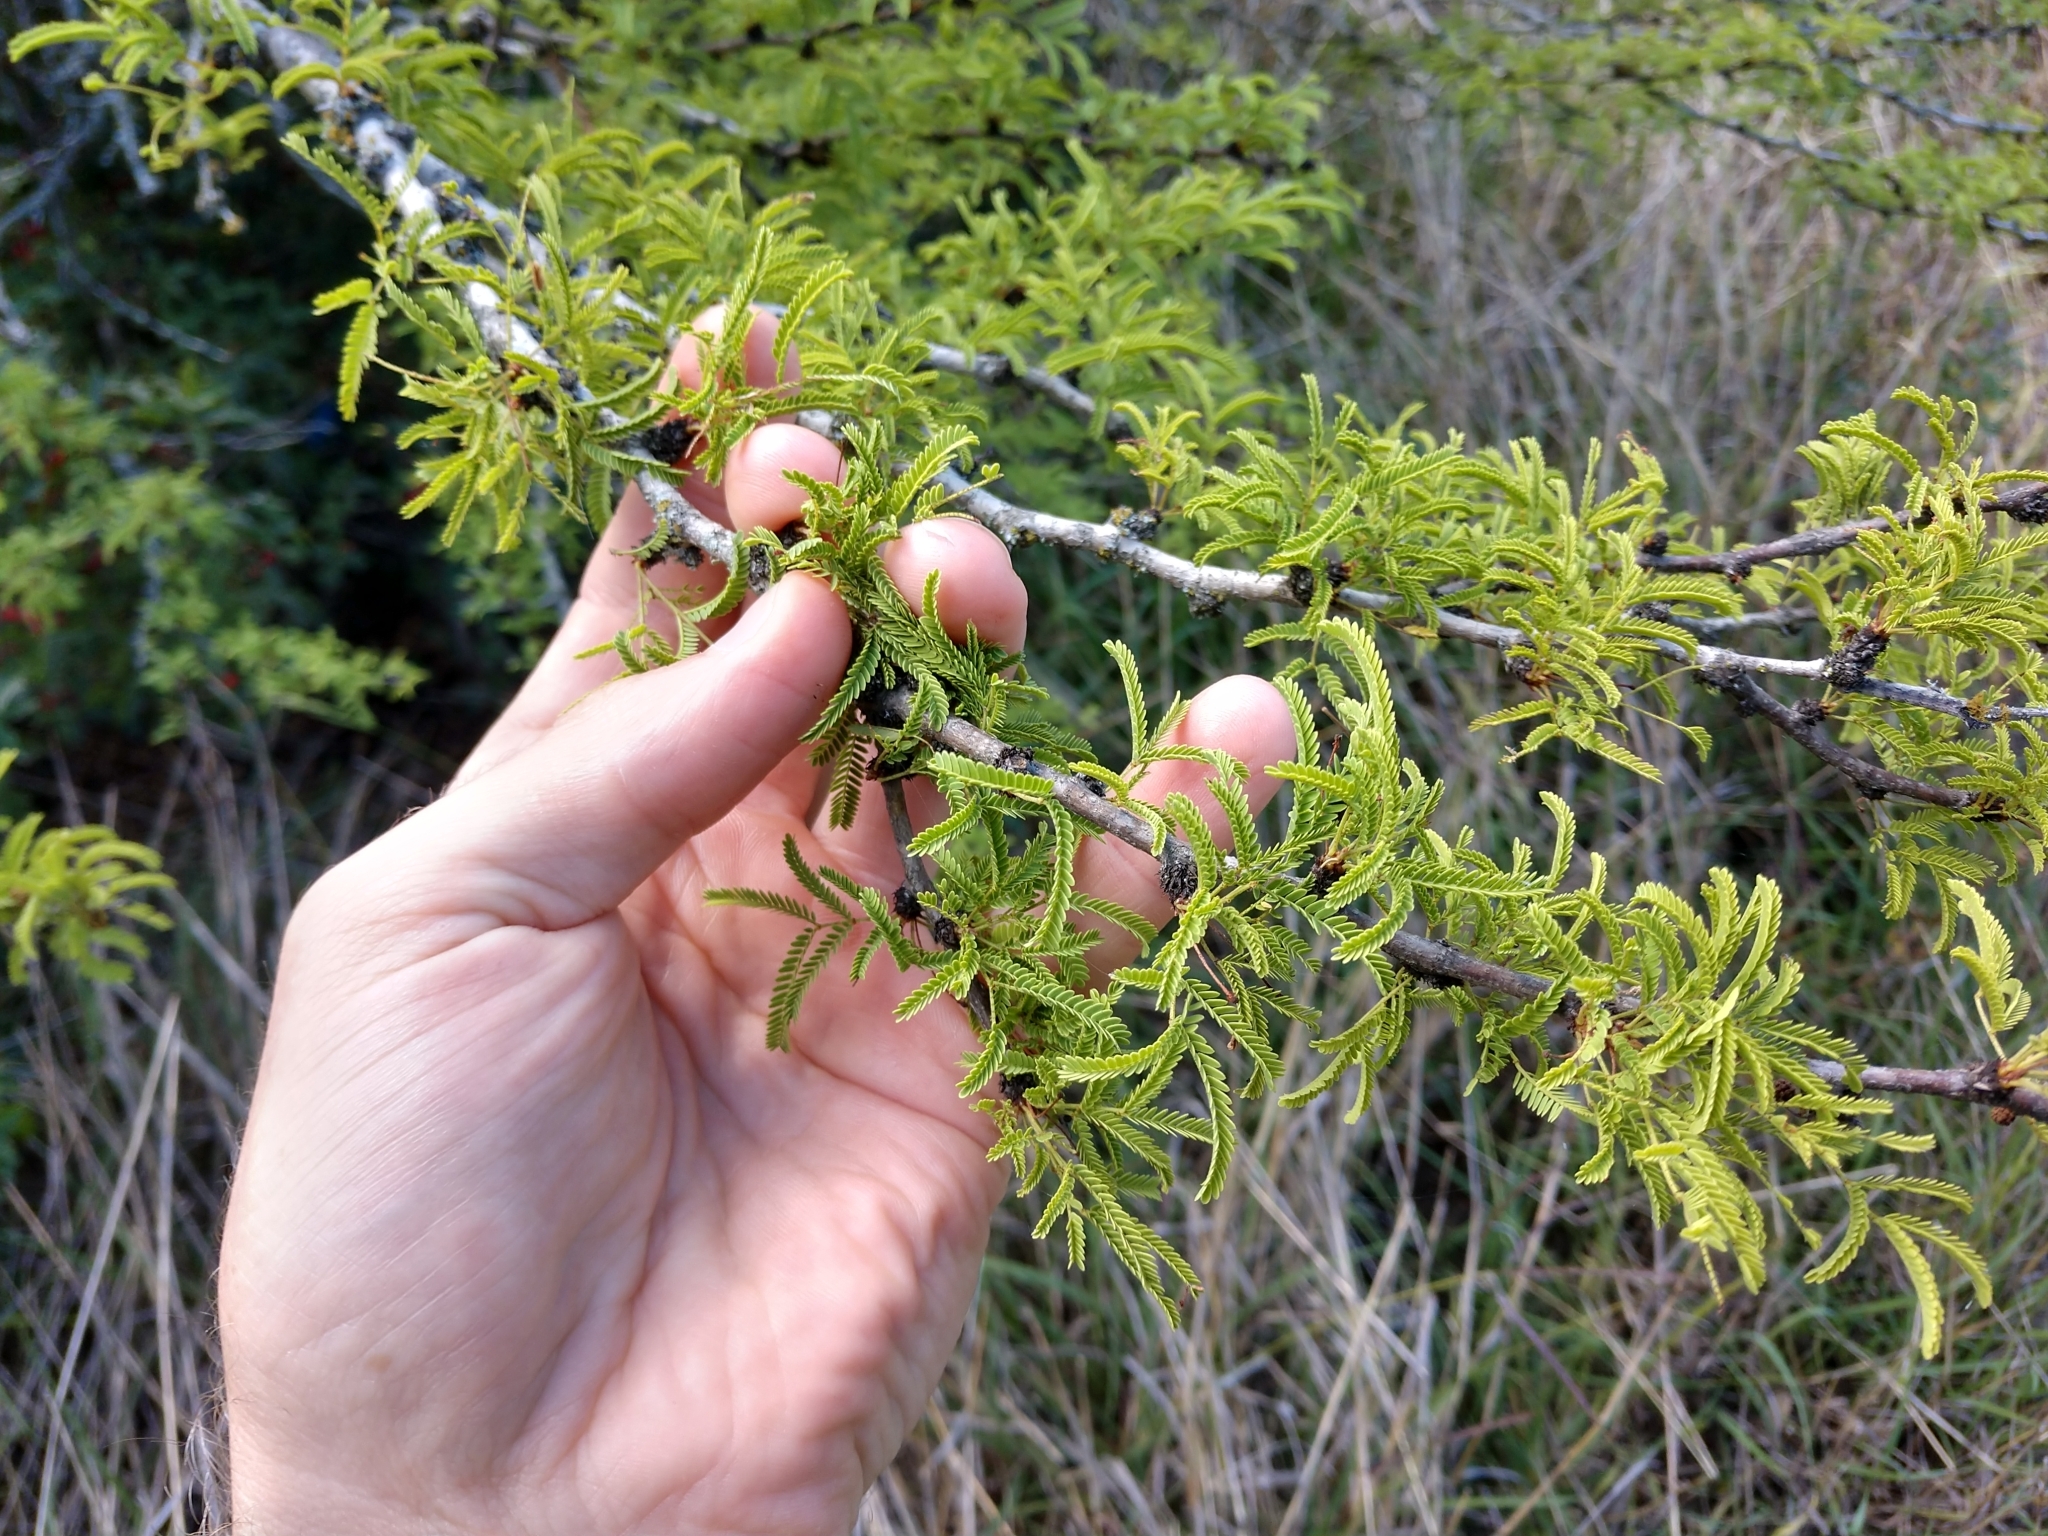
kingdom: Plantae
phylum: Tracheophyta
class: Magnoliopsida
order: Fabales
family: Fabaceae
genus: Vachellia
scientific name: Vachellia schaffneri
